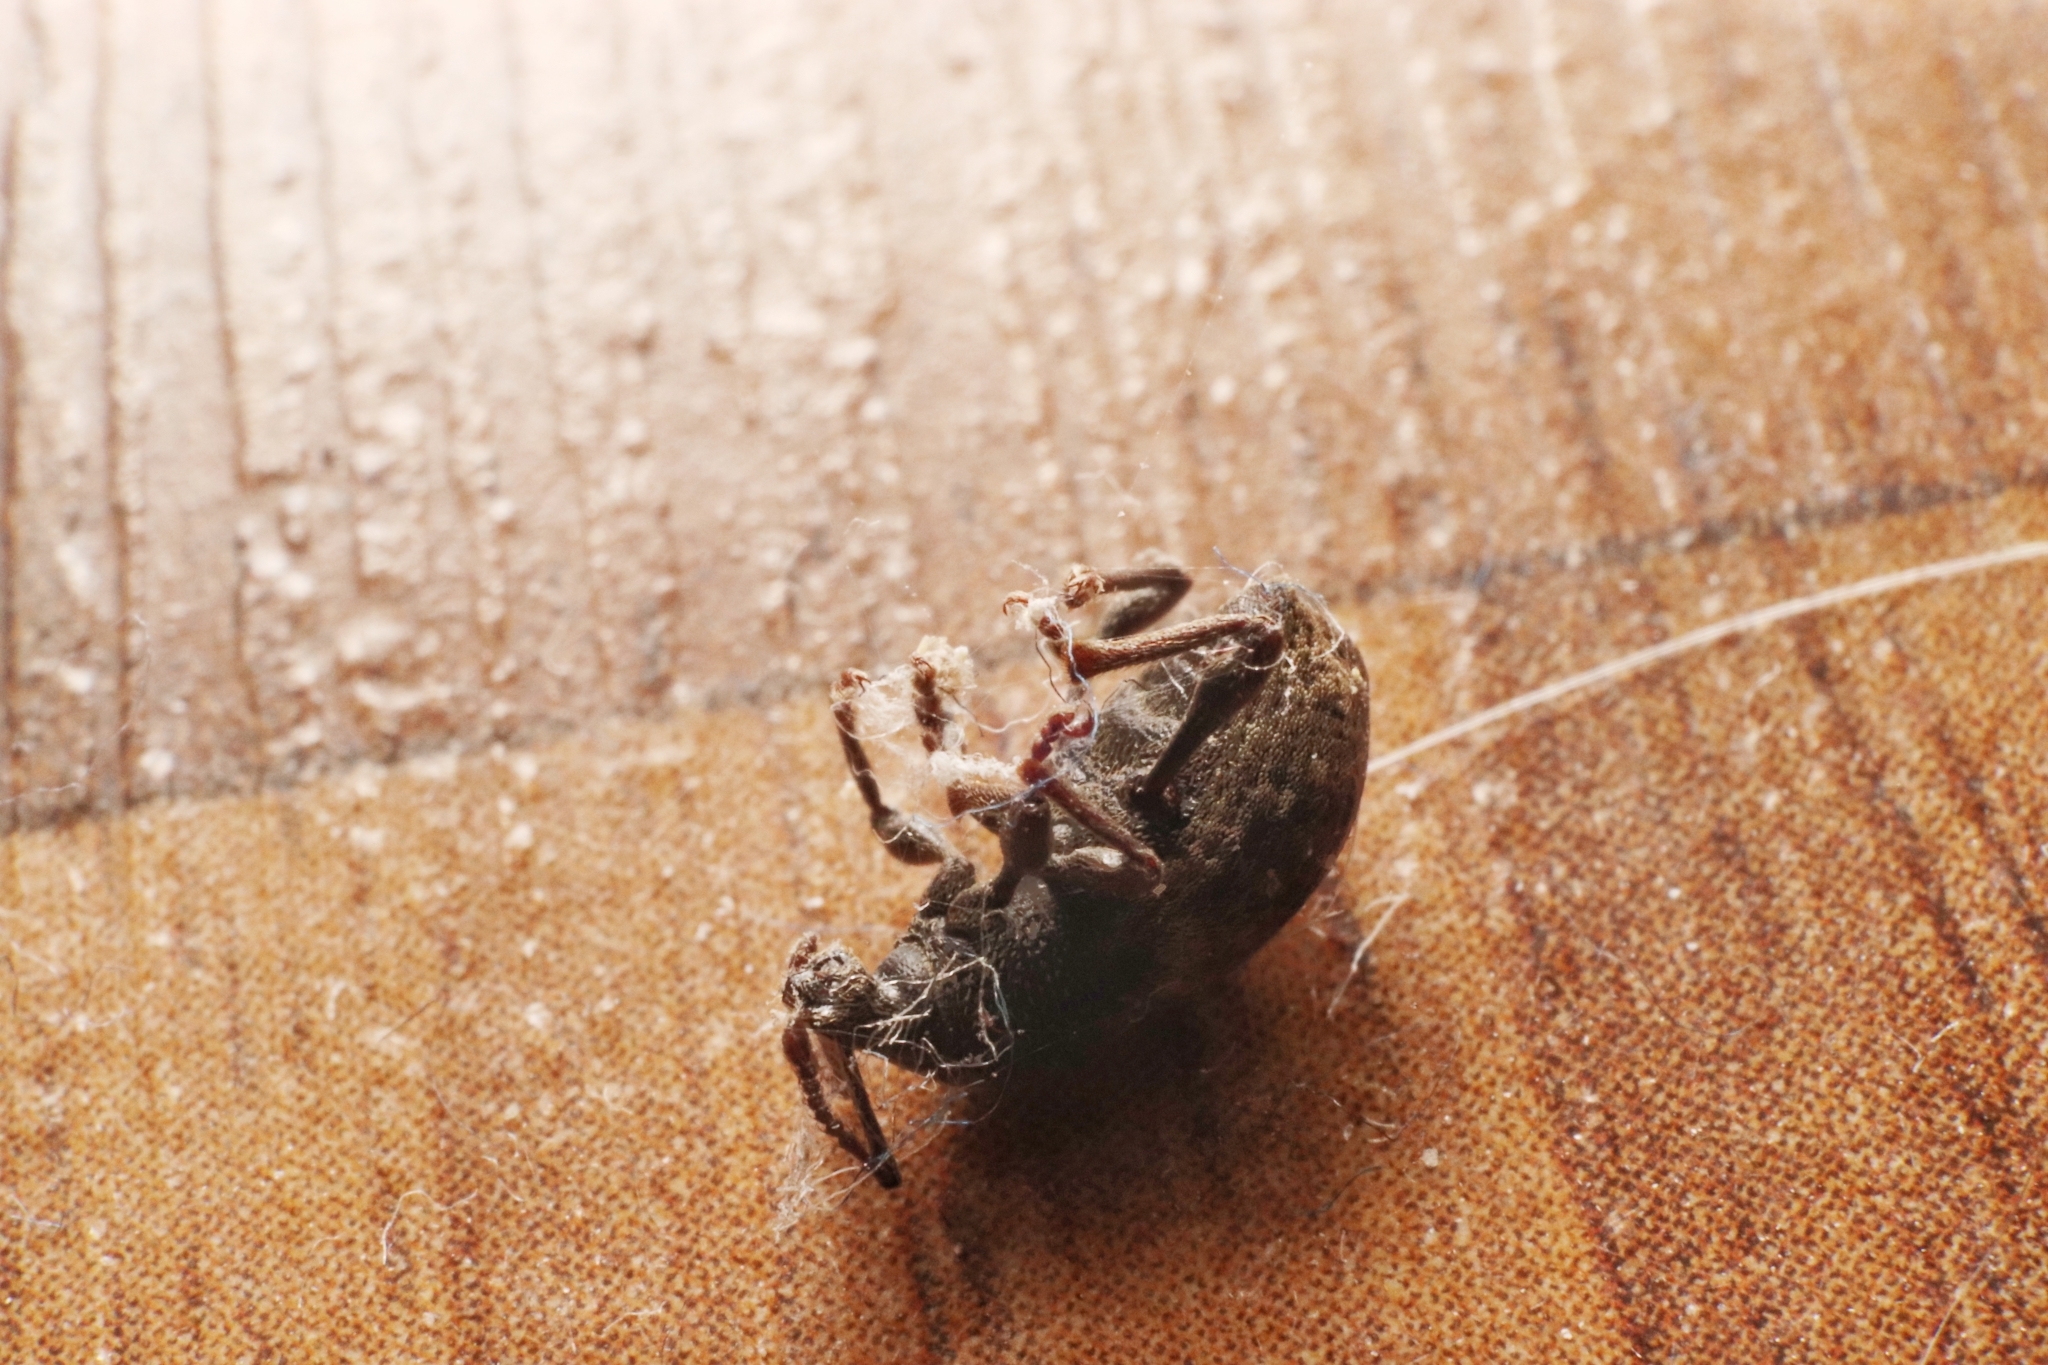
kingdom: Animalia
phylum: Arthropoda
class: Insecta
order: Coleoptera
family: Curculionidae
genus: Otiorhynchus
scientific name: Otiorhynchus raucus
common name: Weevil
